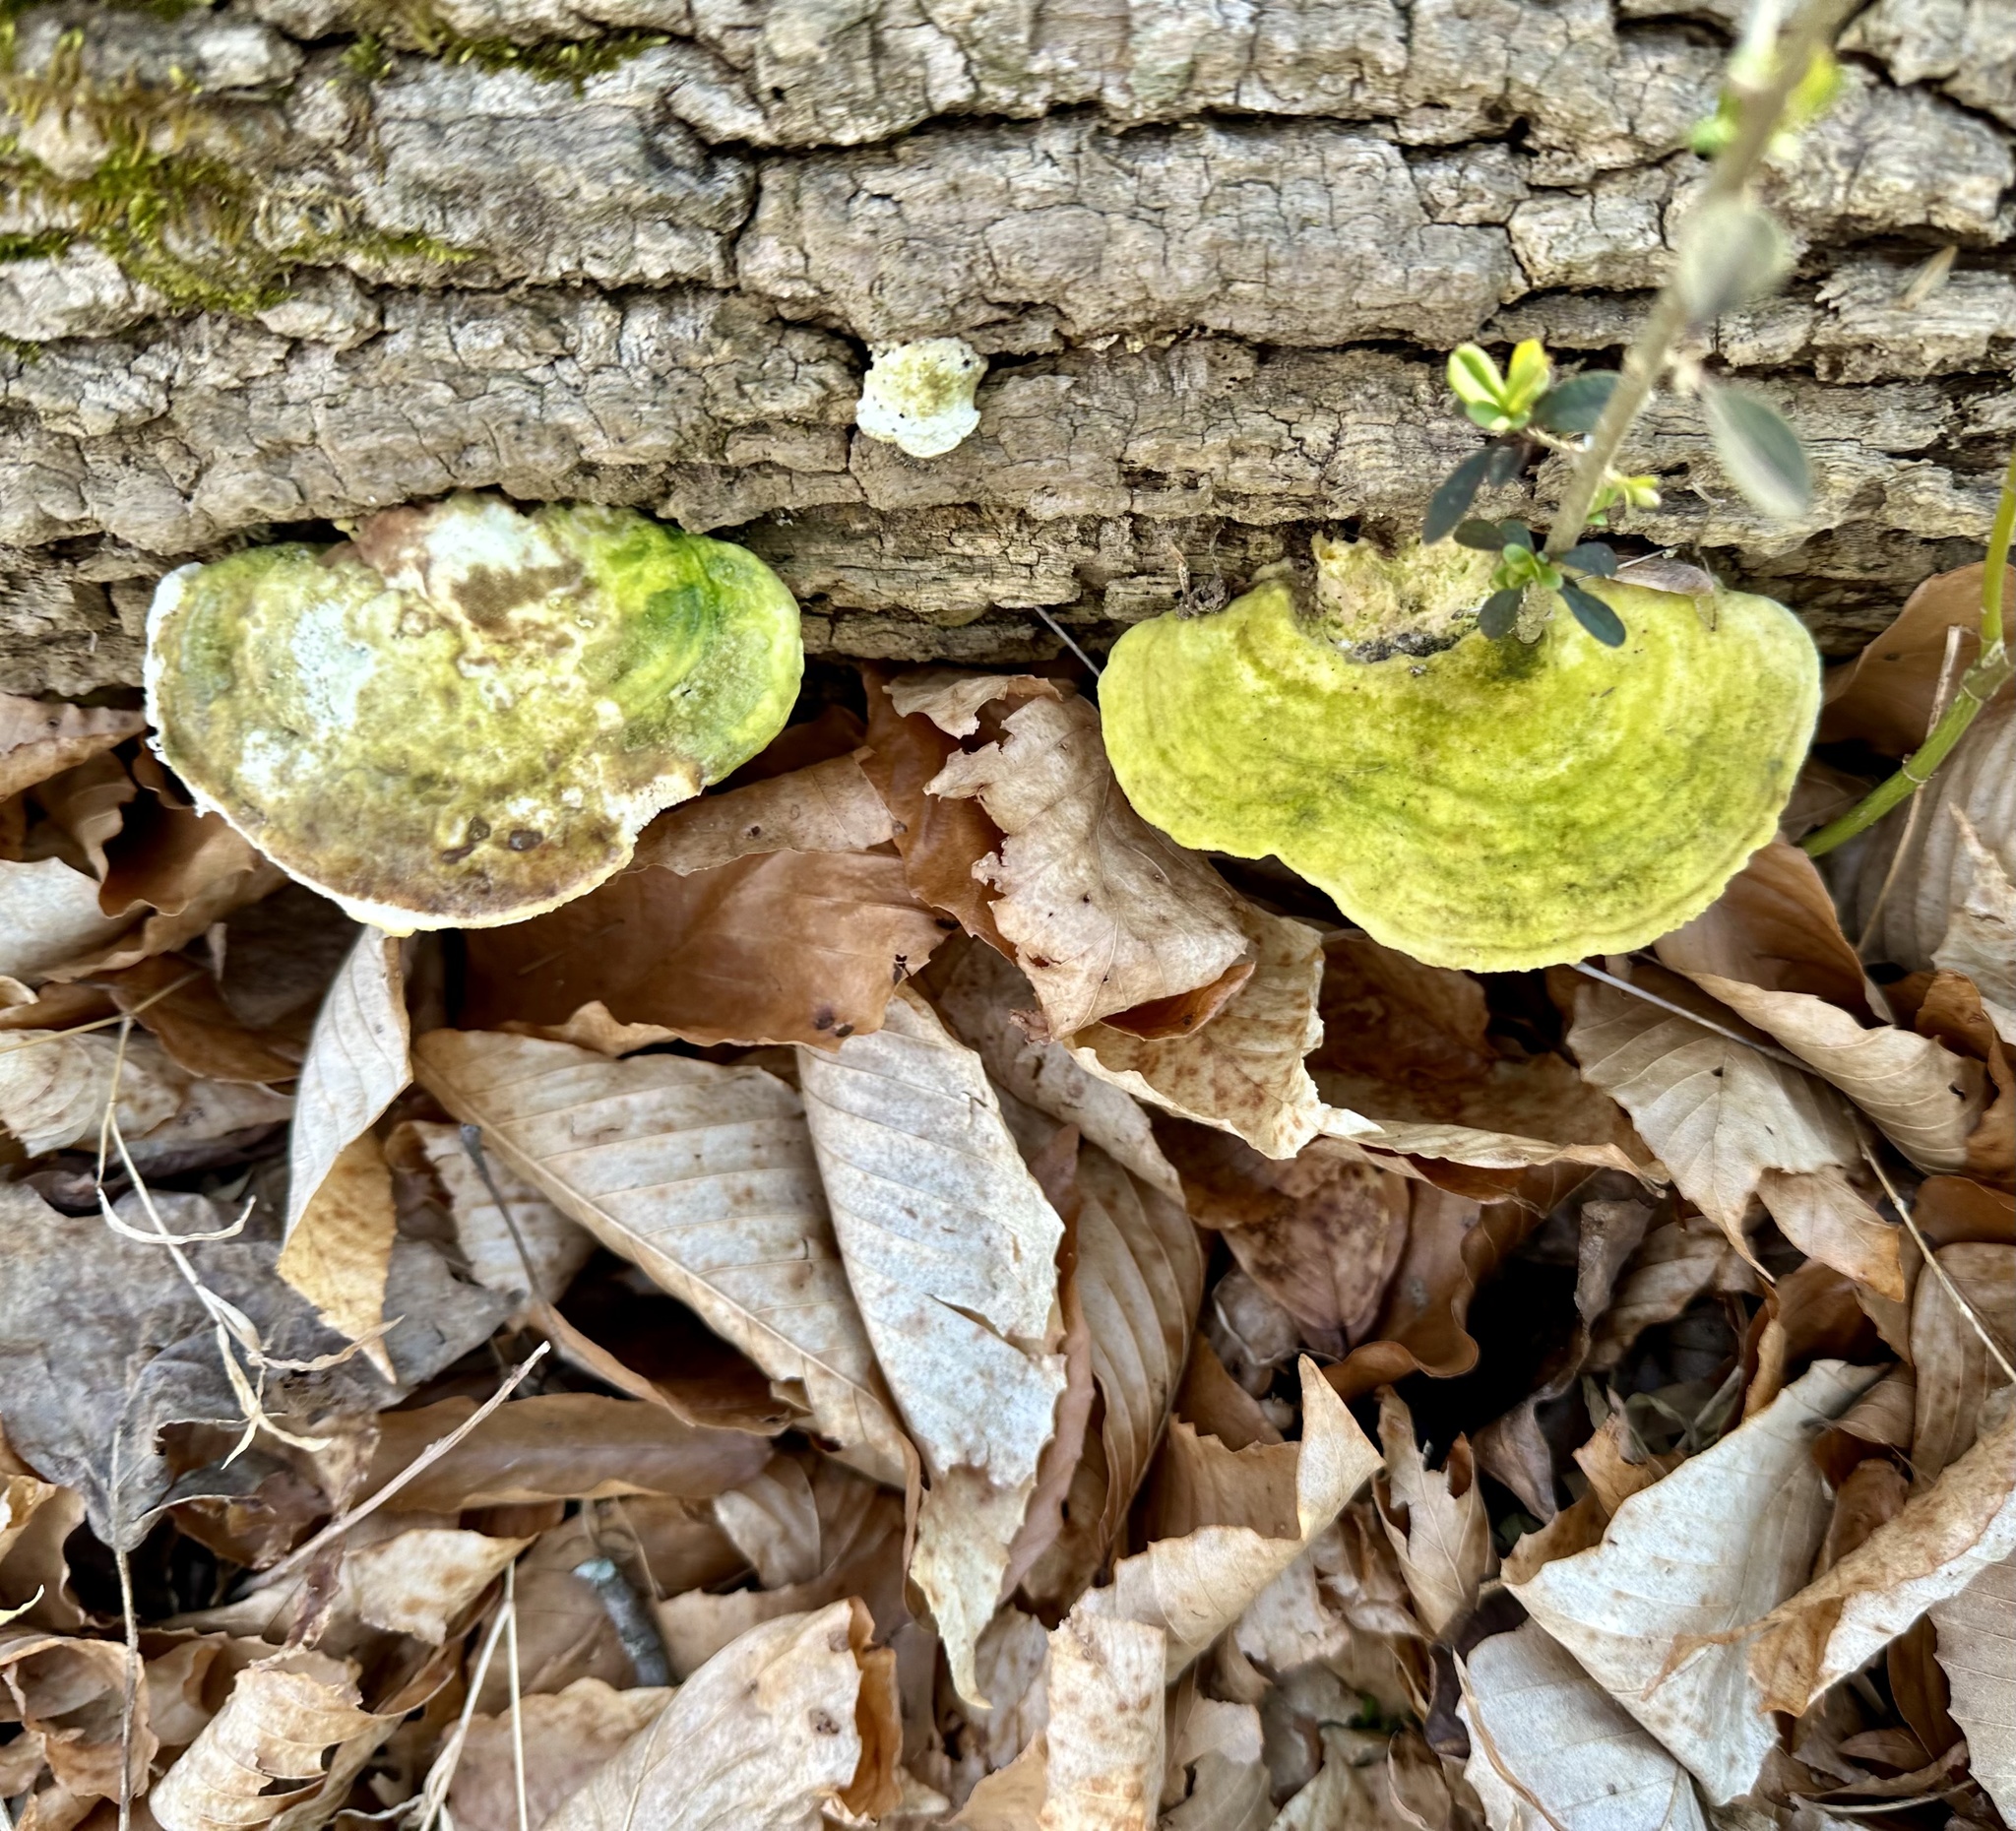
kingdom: Fungi
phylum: Basidiomycota
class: Agaricomycetes
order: Polyporales
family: Polyporaceae
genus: Trametes
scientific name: Trametes gibbosa
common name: Lumpy bracket
